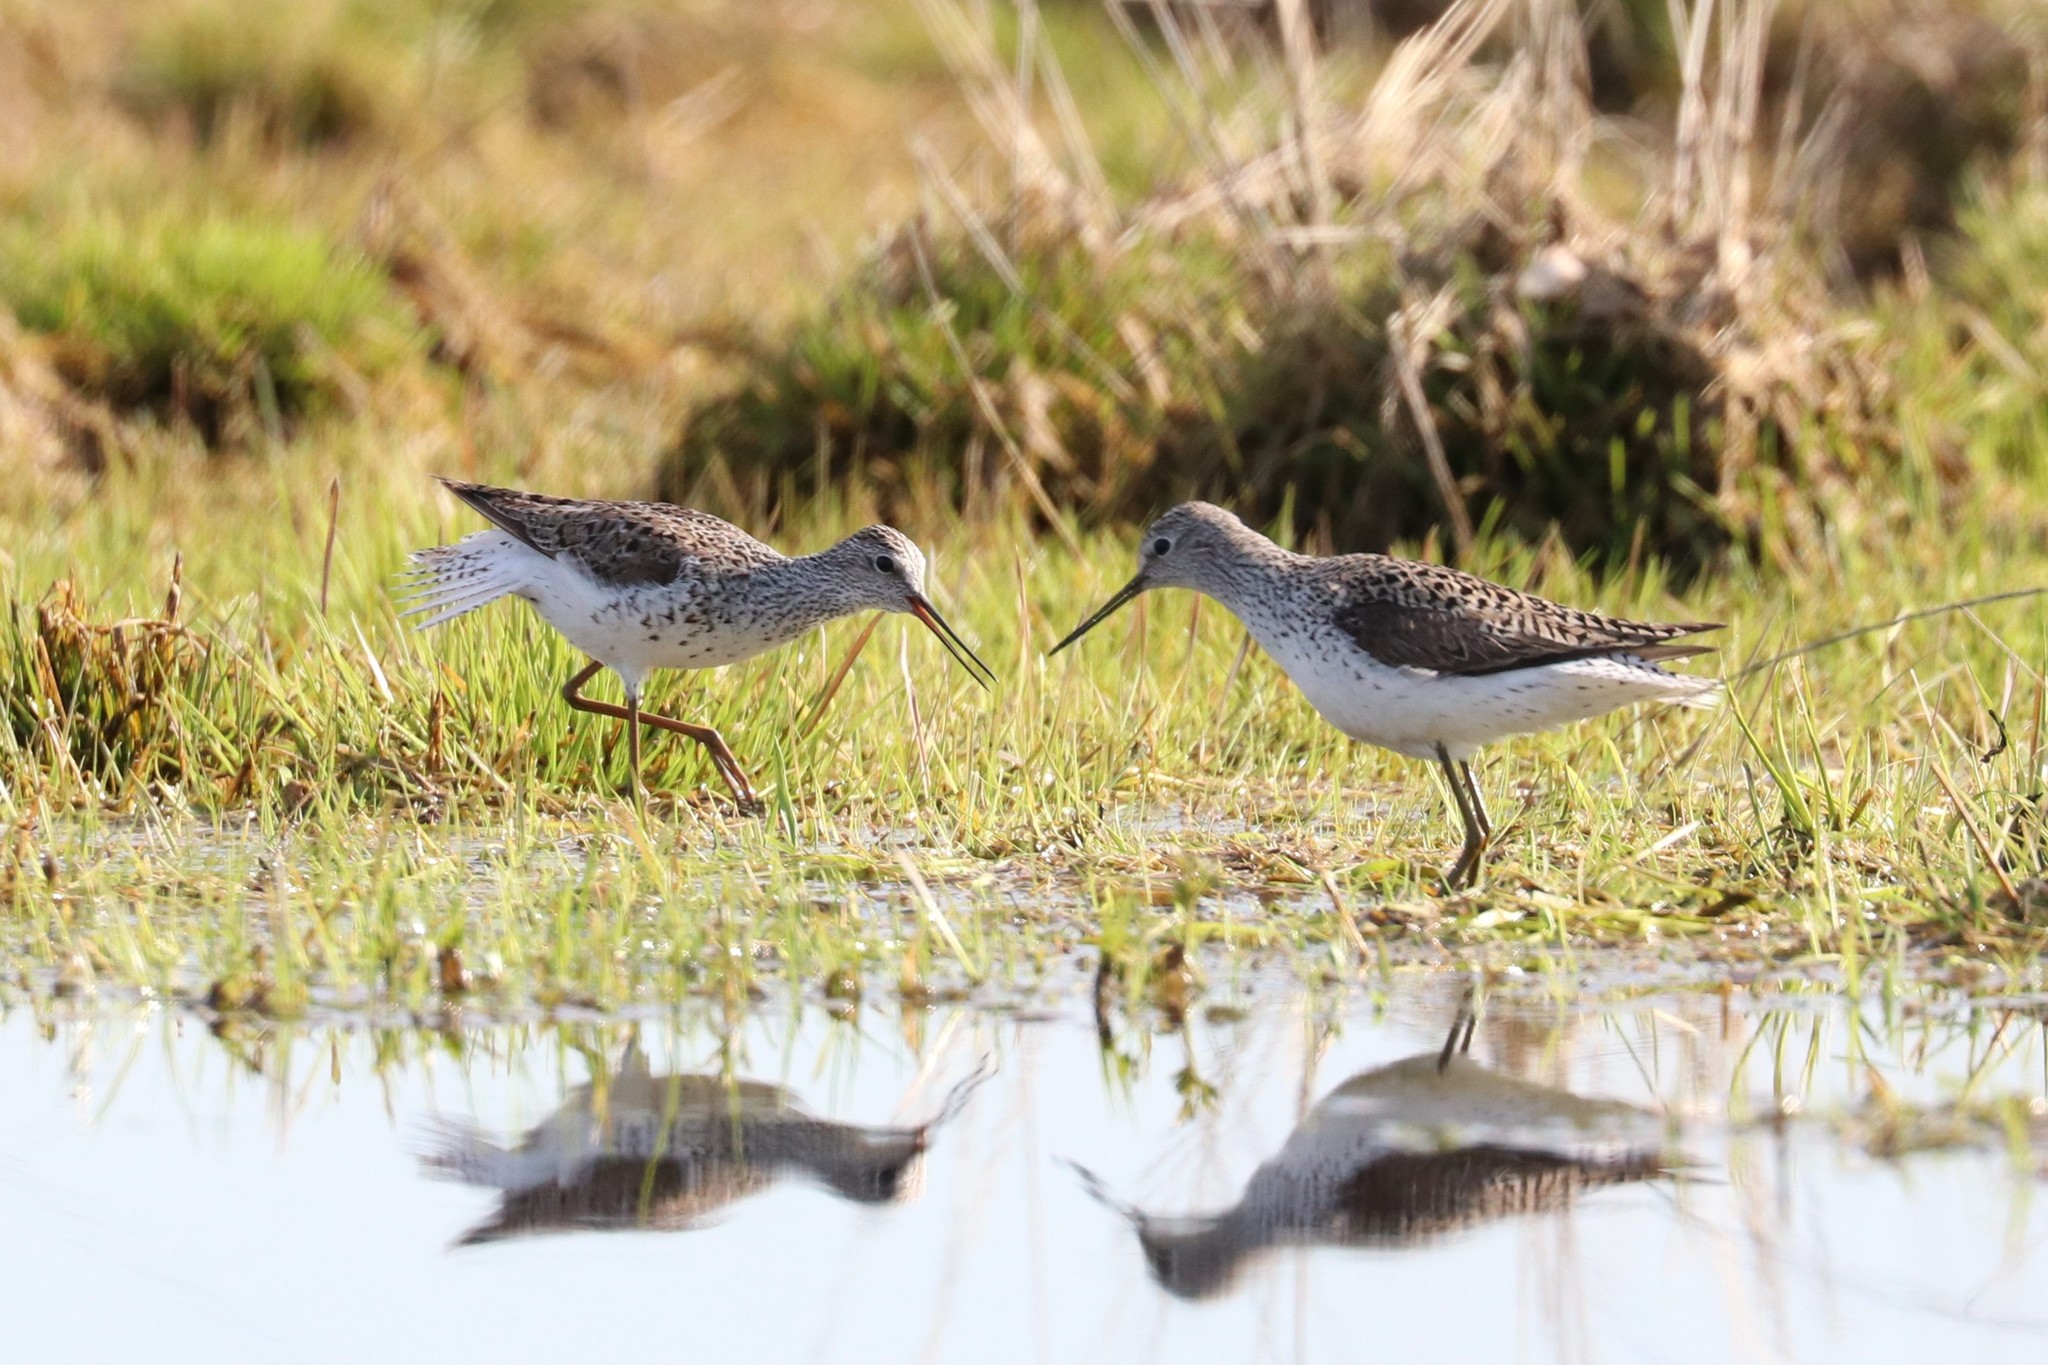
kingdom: Animalia
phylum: Chordata
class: Aves
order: Charadriiformes
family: Scolopacidae
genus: Tringa
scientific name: Tringa stagnatilis
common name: Marsh sandpiper
